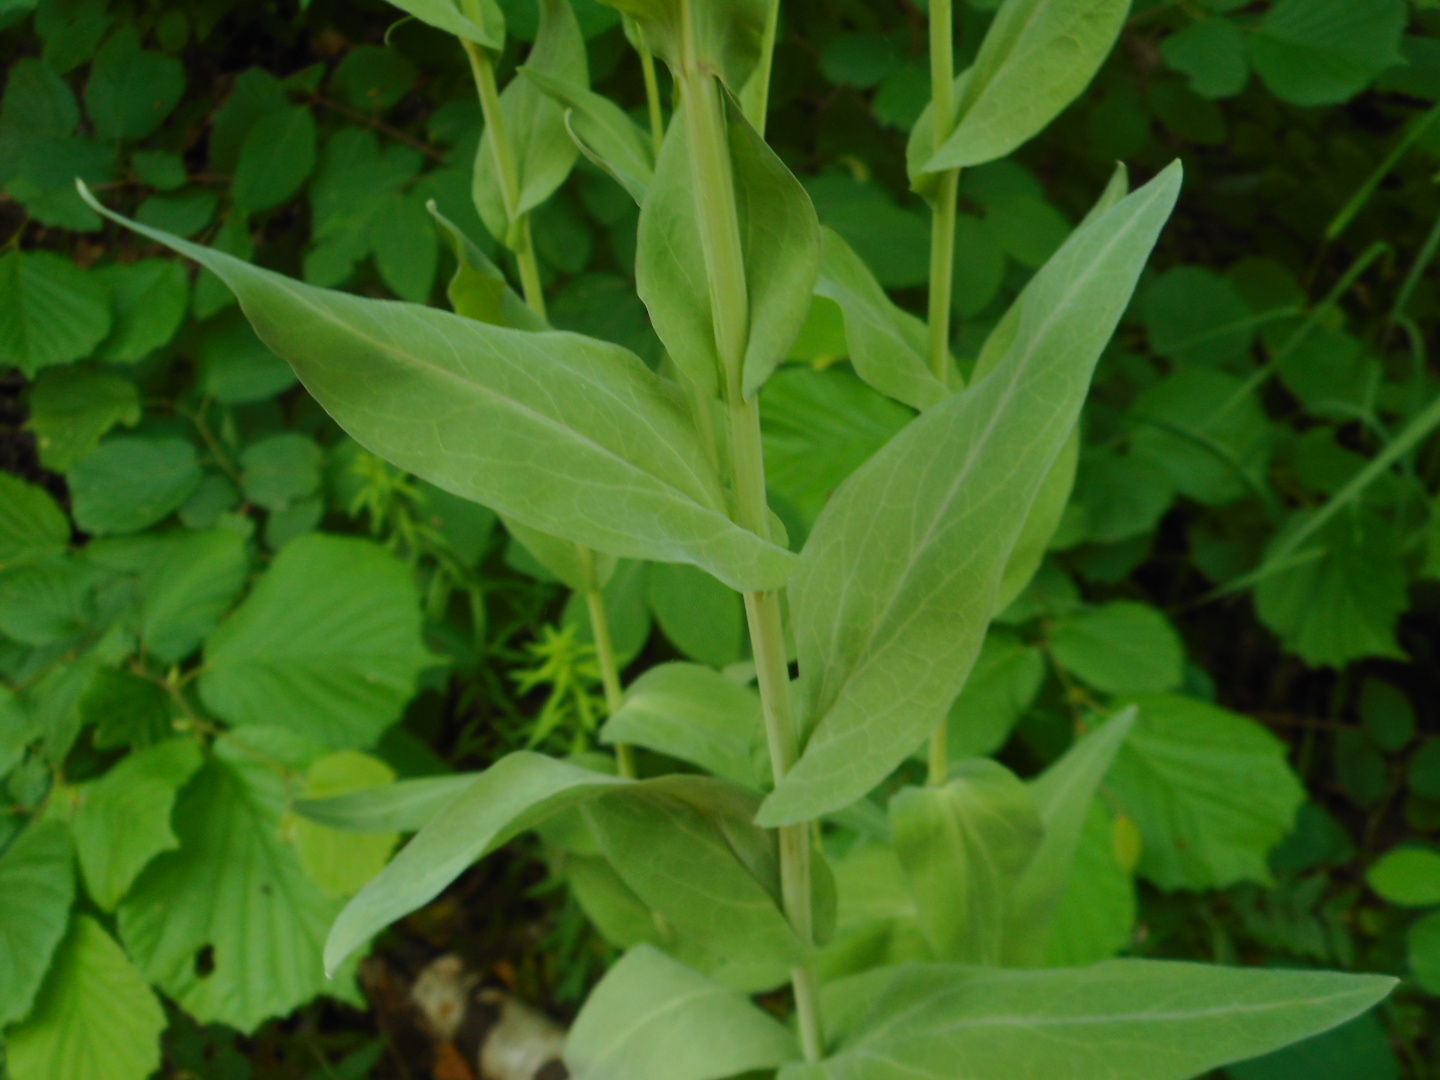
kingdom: Plantae
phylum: Tracheophyta
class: Magnoliopsida
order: Brassicales
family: Brassicaceae
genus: Turritis
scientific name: Turritis glabra
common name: Tower rockcress
